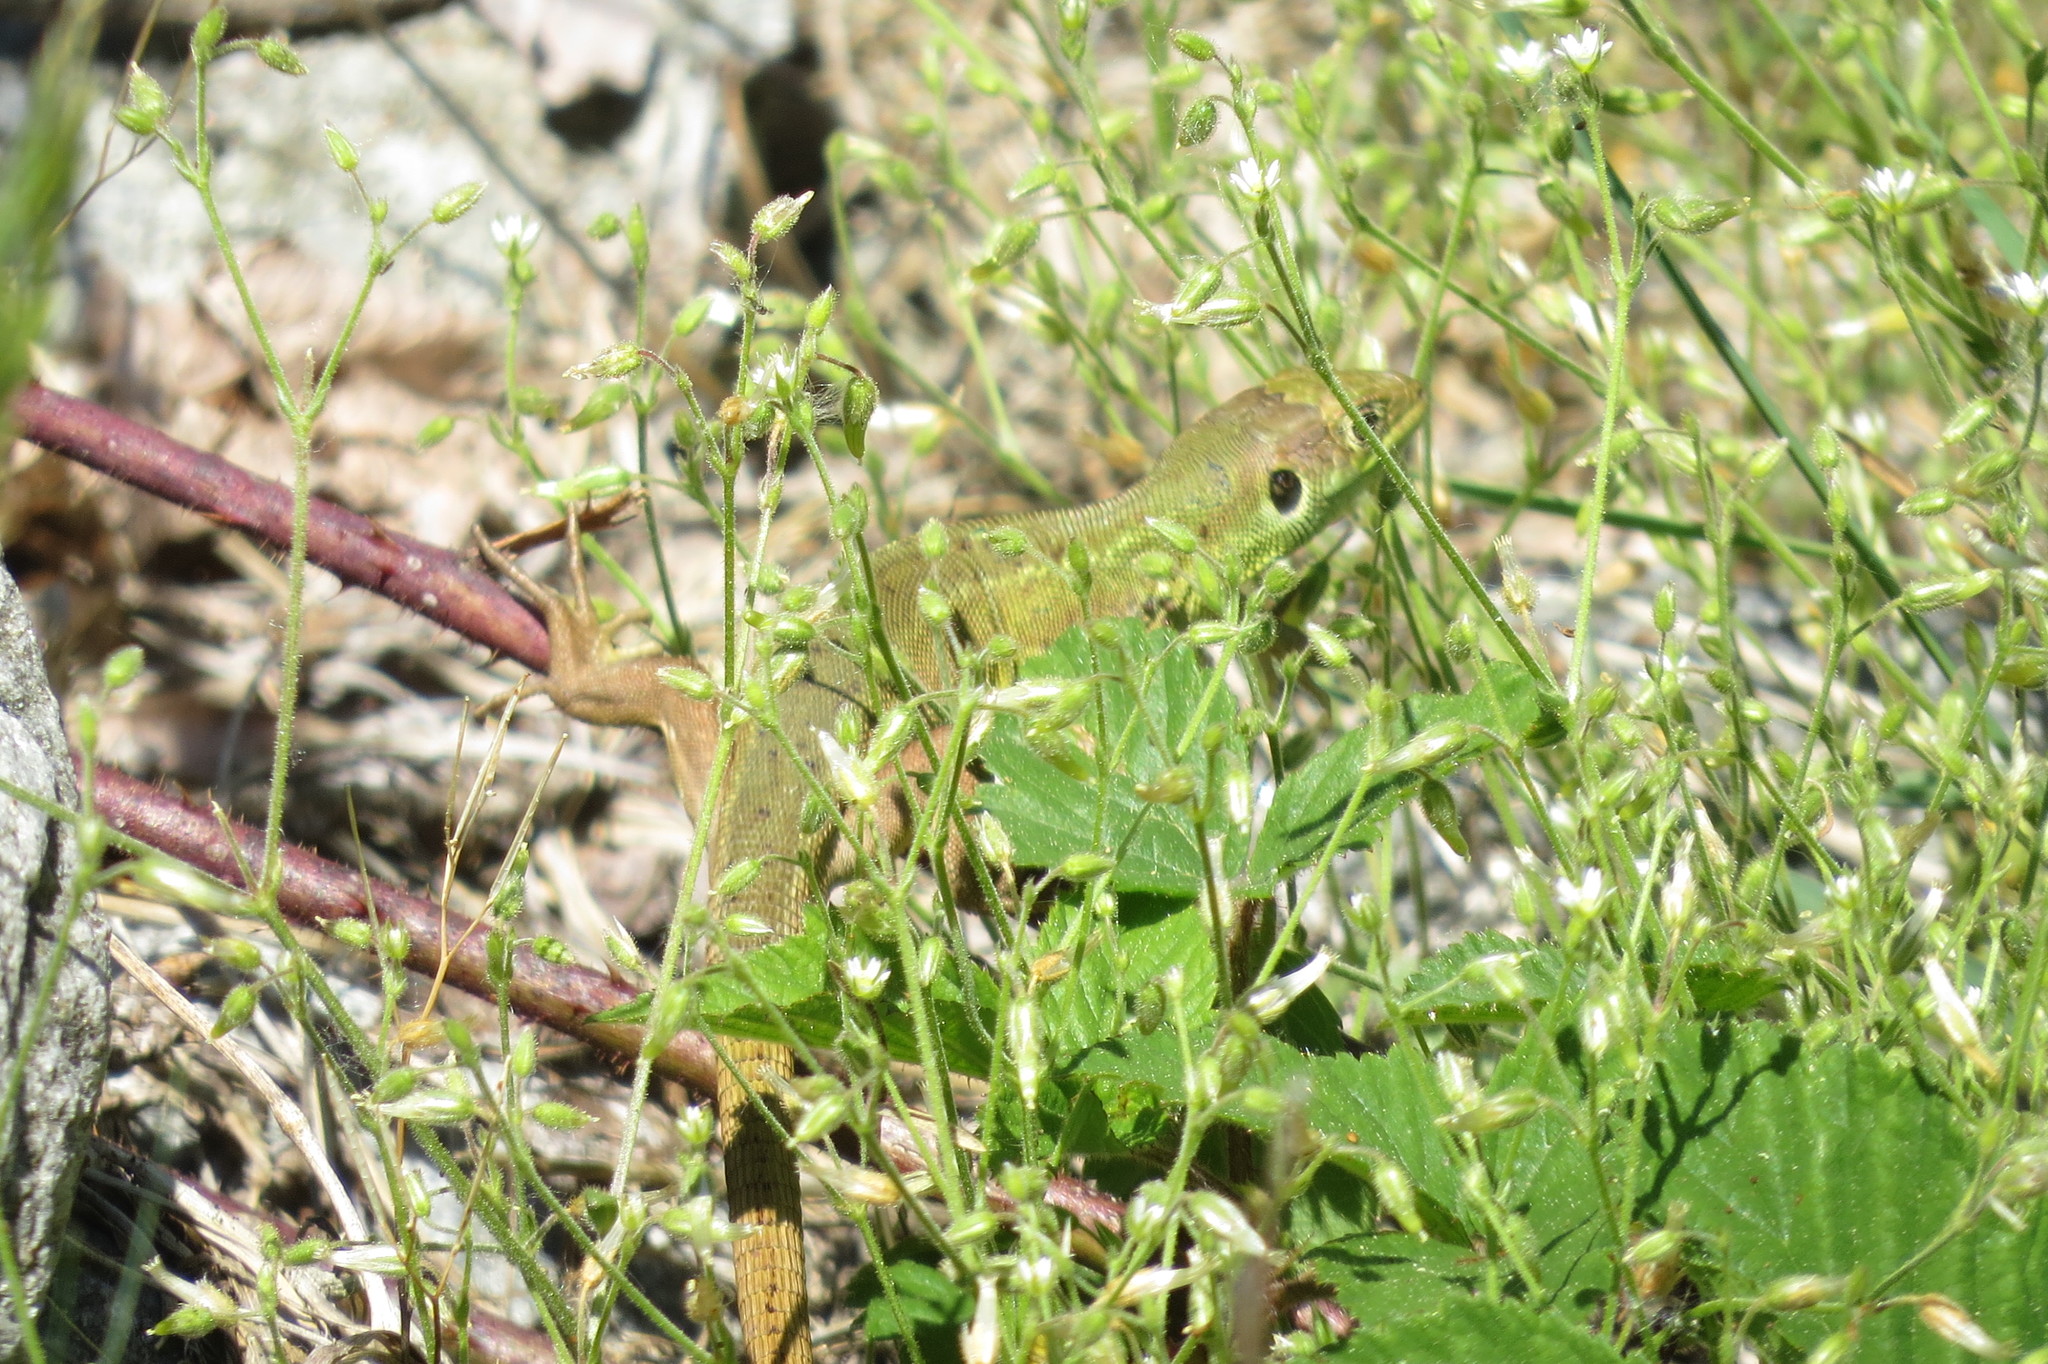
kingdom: Animalia
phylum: Chordata
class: Squamata
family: Lacertidae
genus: Lacerta
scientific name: Lacerta bilineata
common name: Western green lizard
